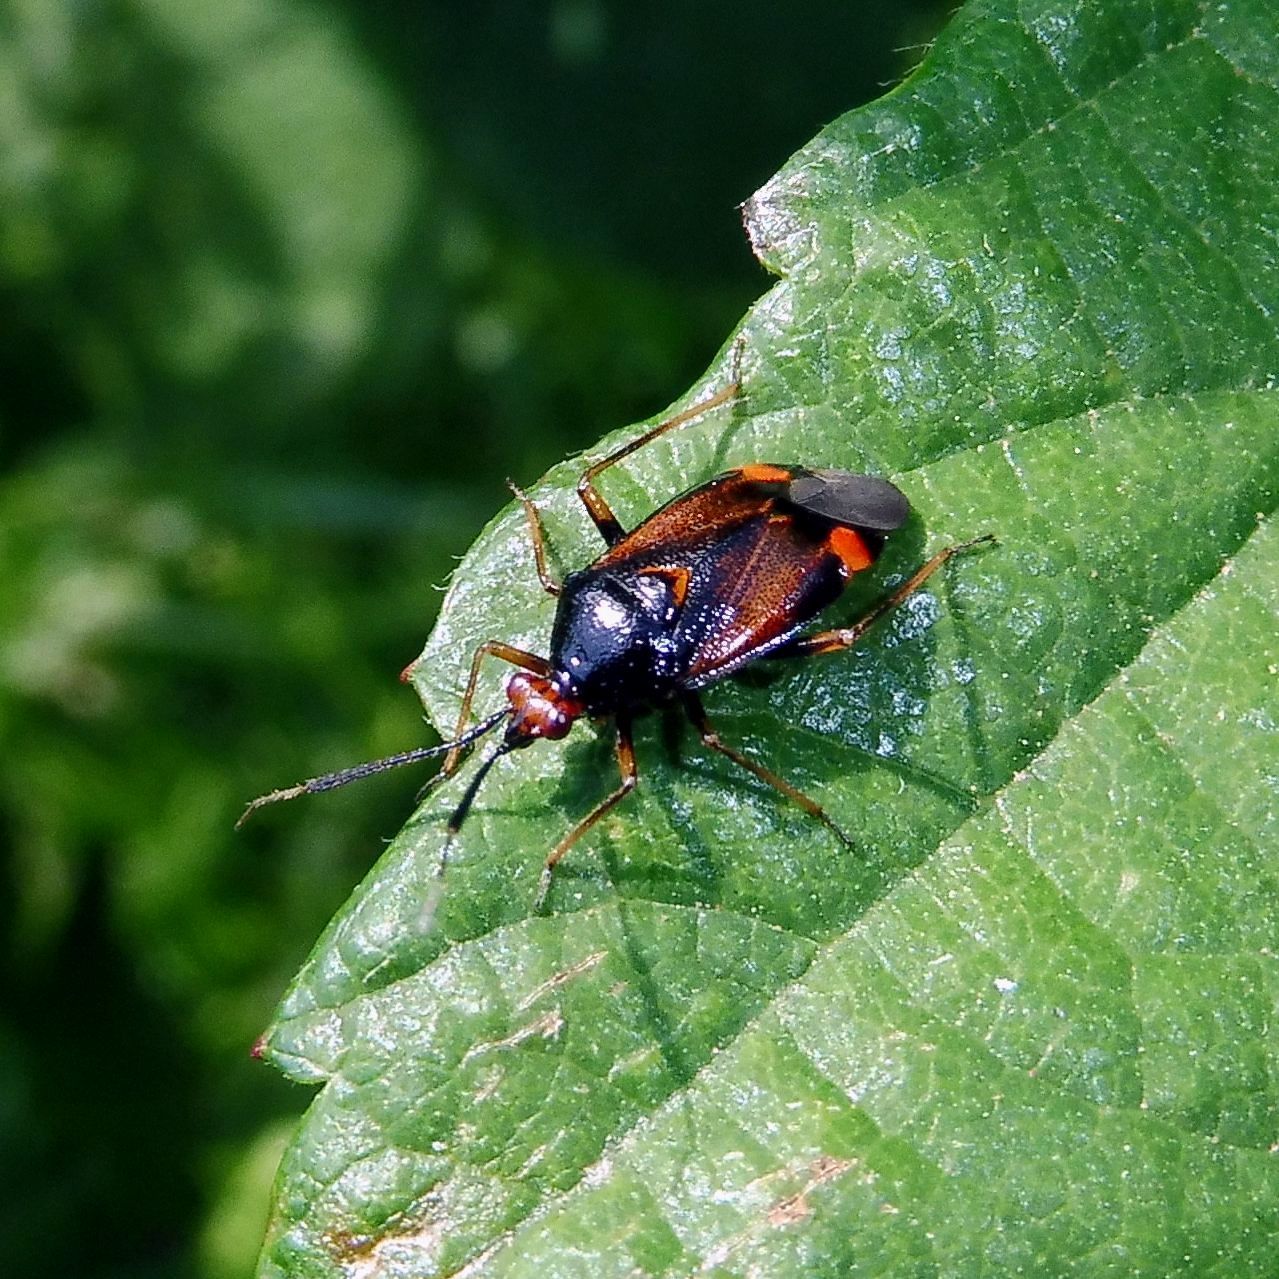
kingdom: Animalia
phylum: Arthropoda
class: Insecta
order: Hemiptera
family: Miridae
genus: Deraeocoris
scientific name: Deraeocoris ruber
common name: Plant bug
